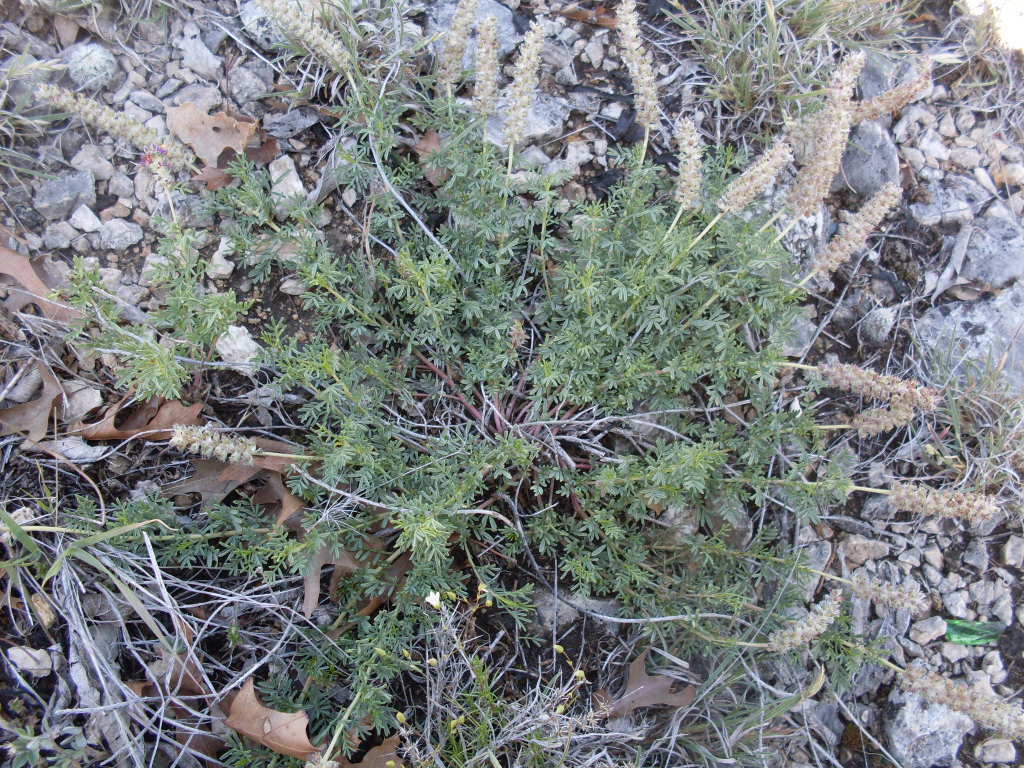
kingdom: Plantae
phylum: Tracheophyta
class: Magnoliopsida
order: Fabales
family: Fabaceae
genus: Dalea
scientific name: Dalea reverchonii
